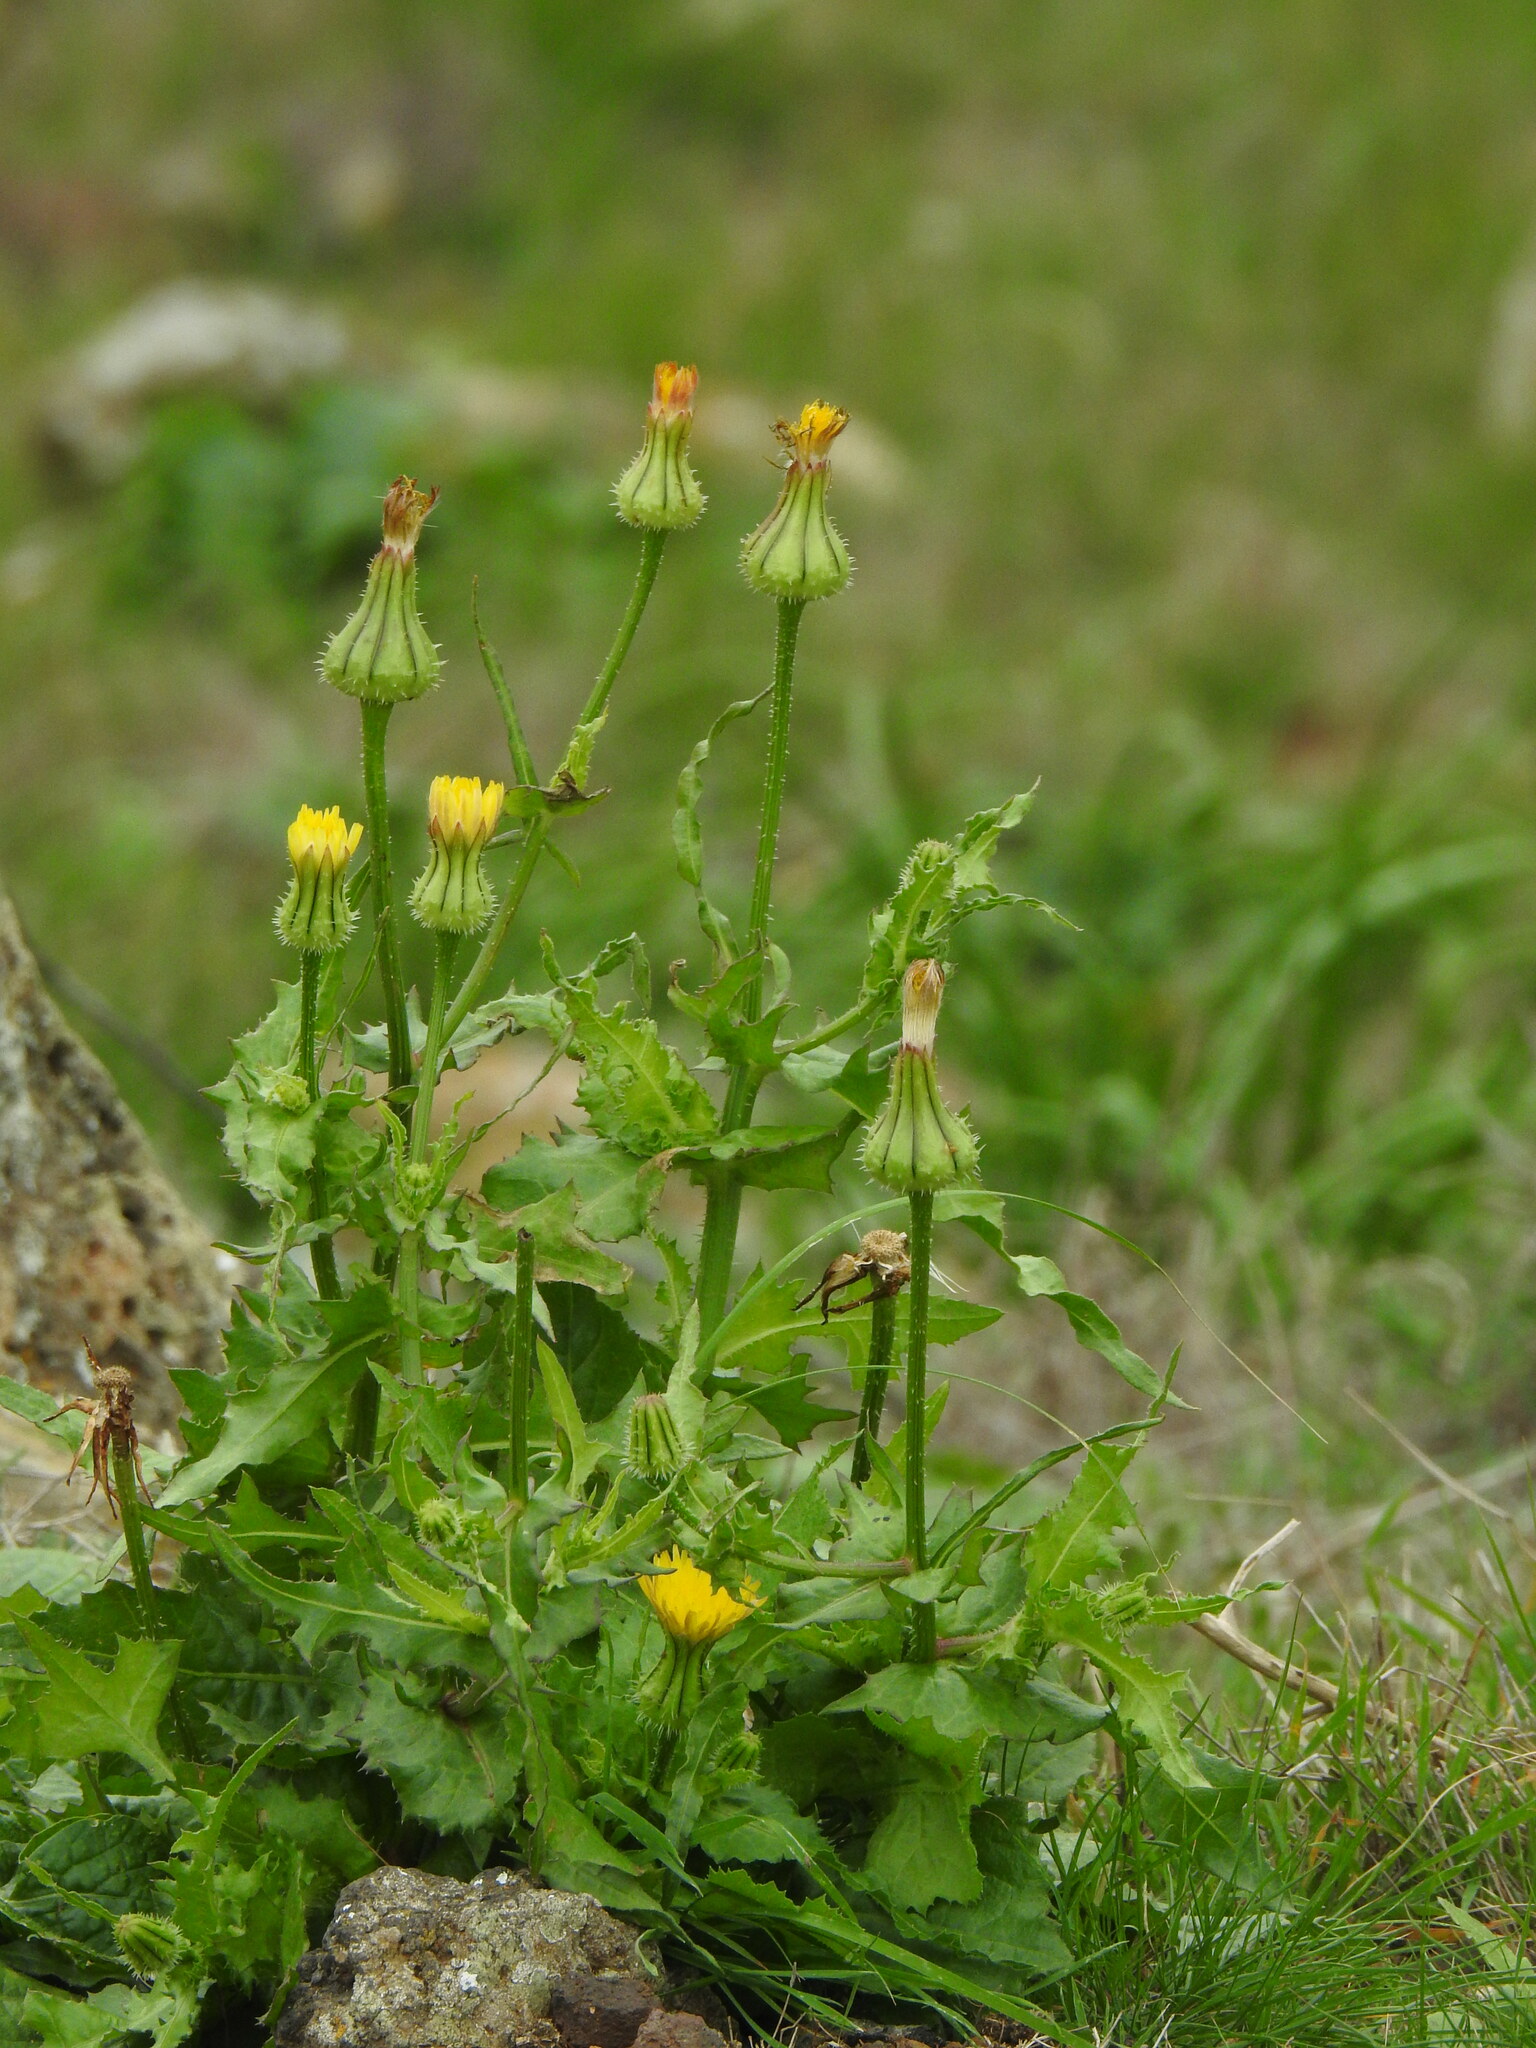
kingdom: Plantae
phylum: Tracheophyta
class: Magnoliopsida
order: Asterales
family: Asteraceae
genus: Urospermum
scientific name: Urospermum picroides
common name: False hawkbit
